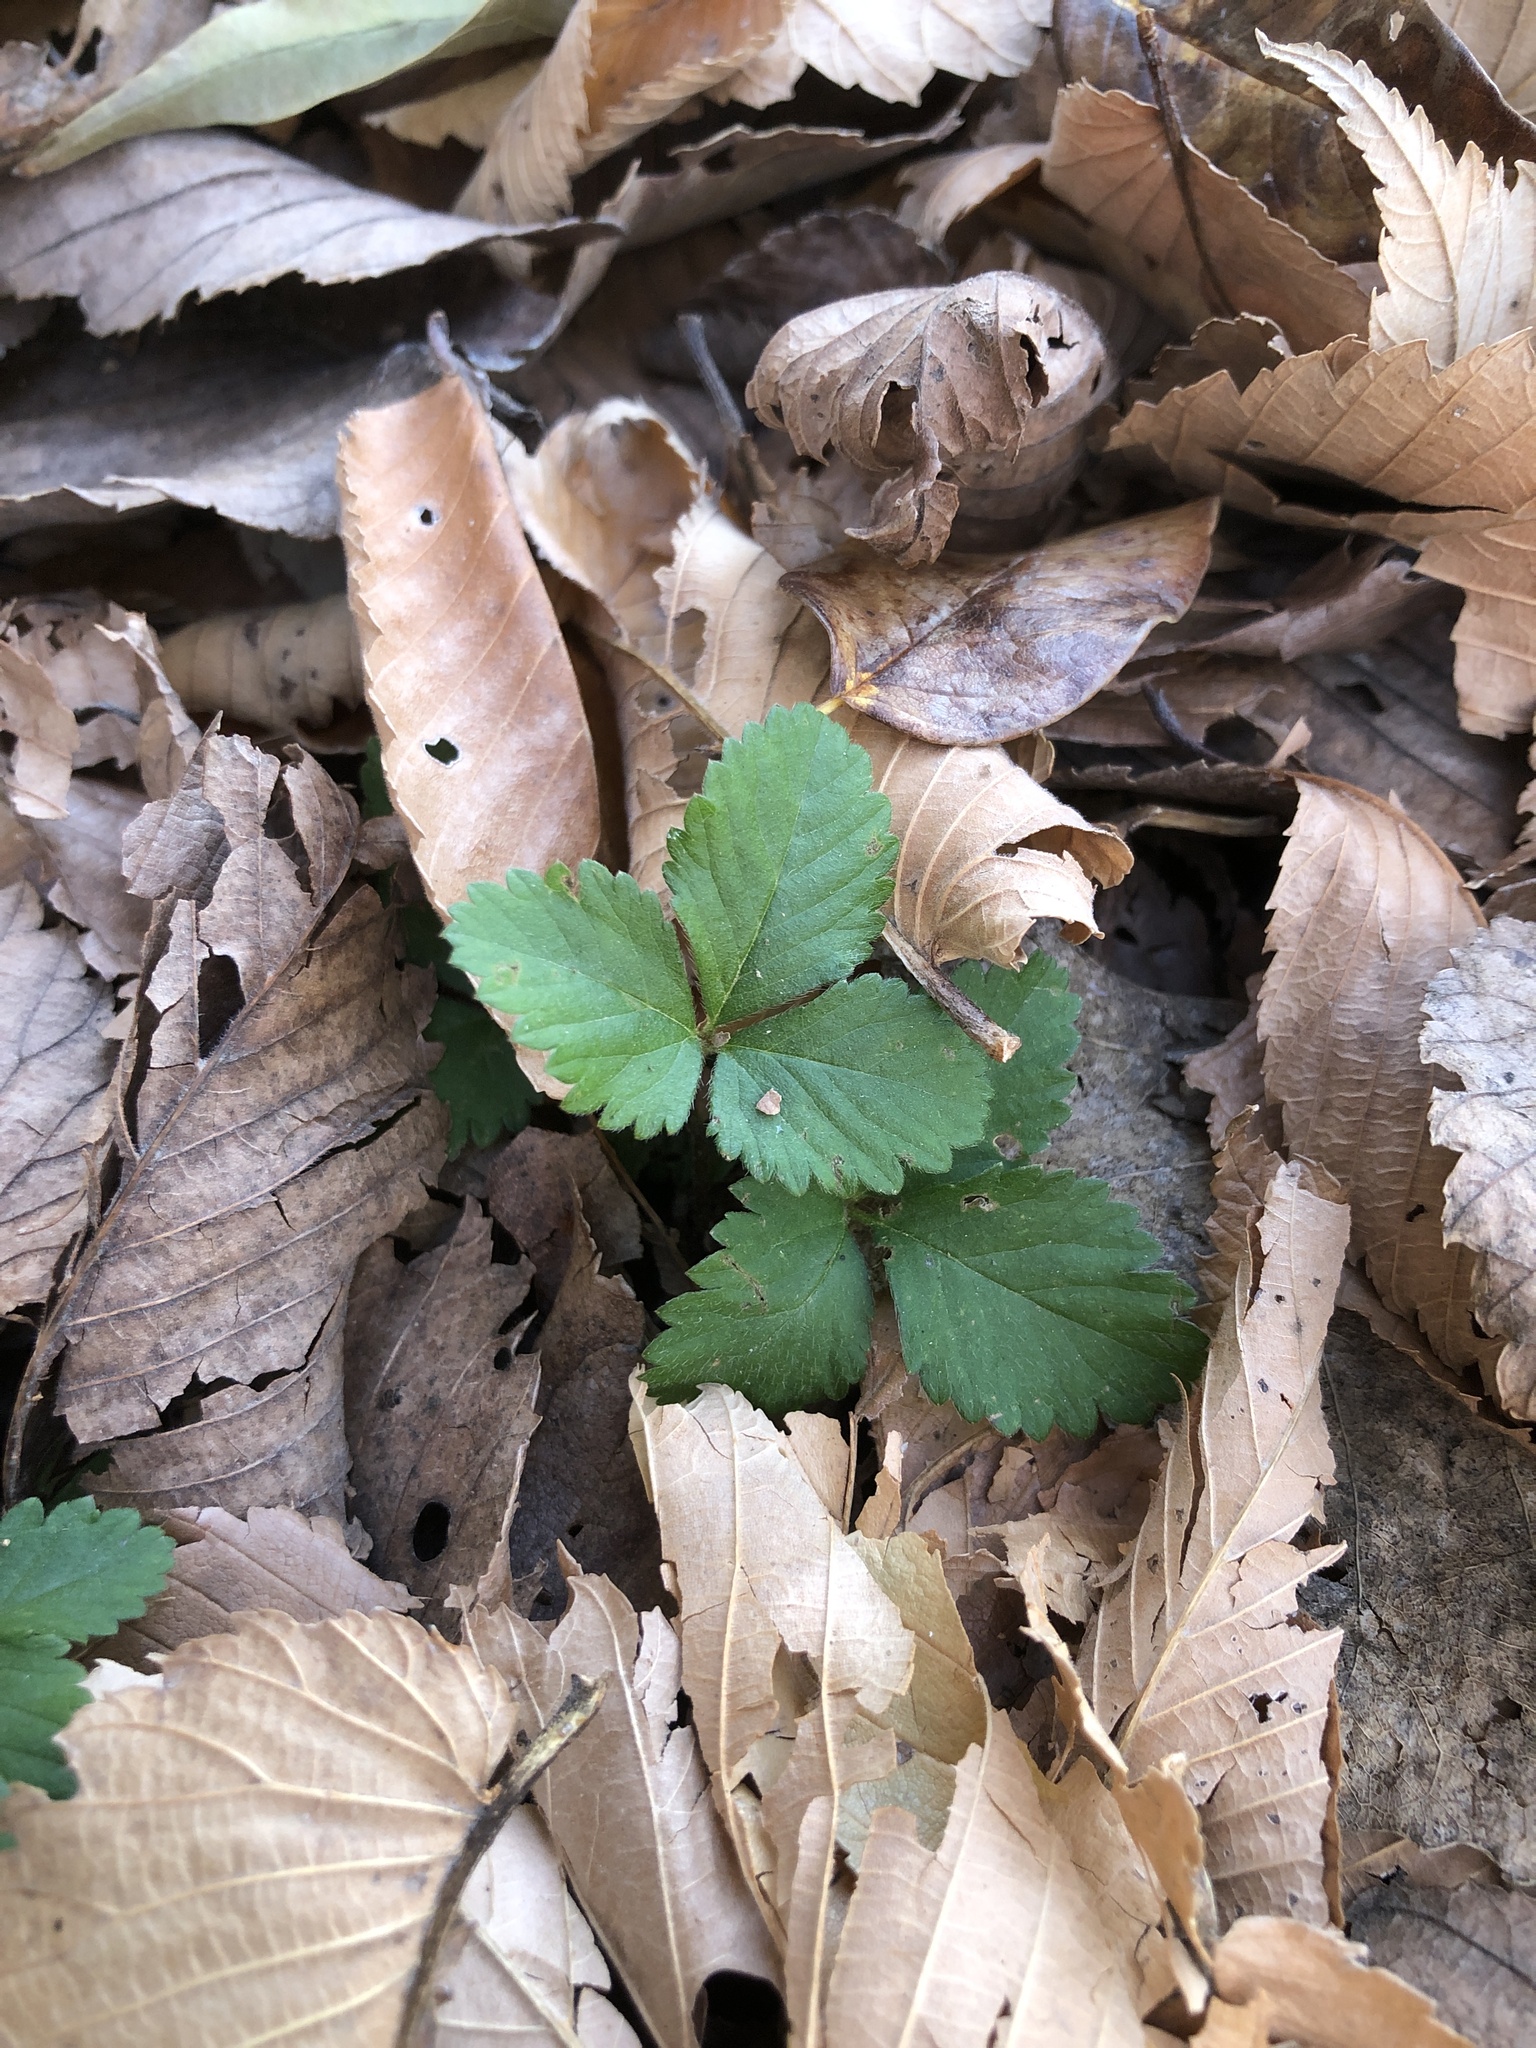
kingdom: Plantae
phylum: Tracheophyta
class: Magnoliopsida
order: Rosales
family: Rosaceae
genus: Potentilla
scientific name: Potentilla indica
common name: Yellow-flowered strawberry
